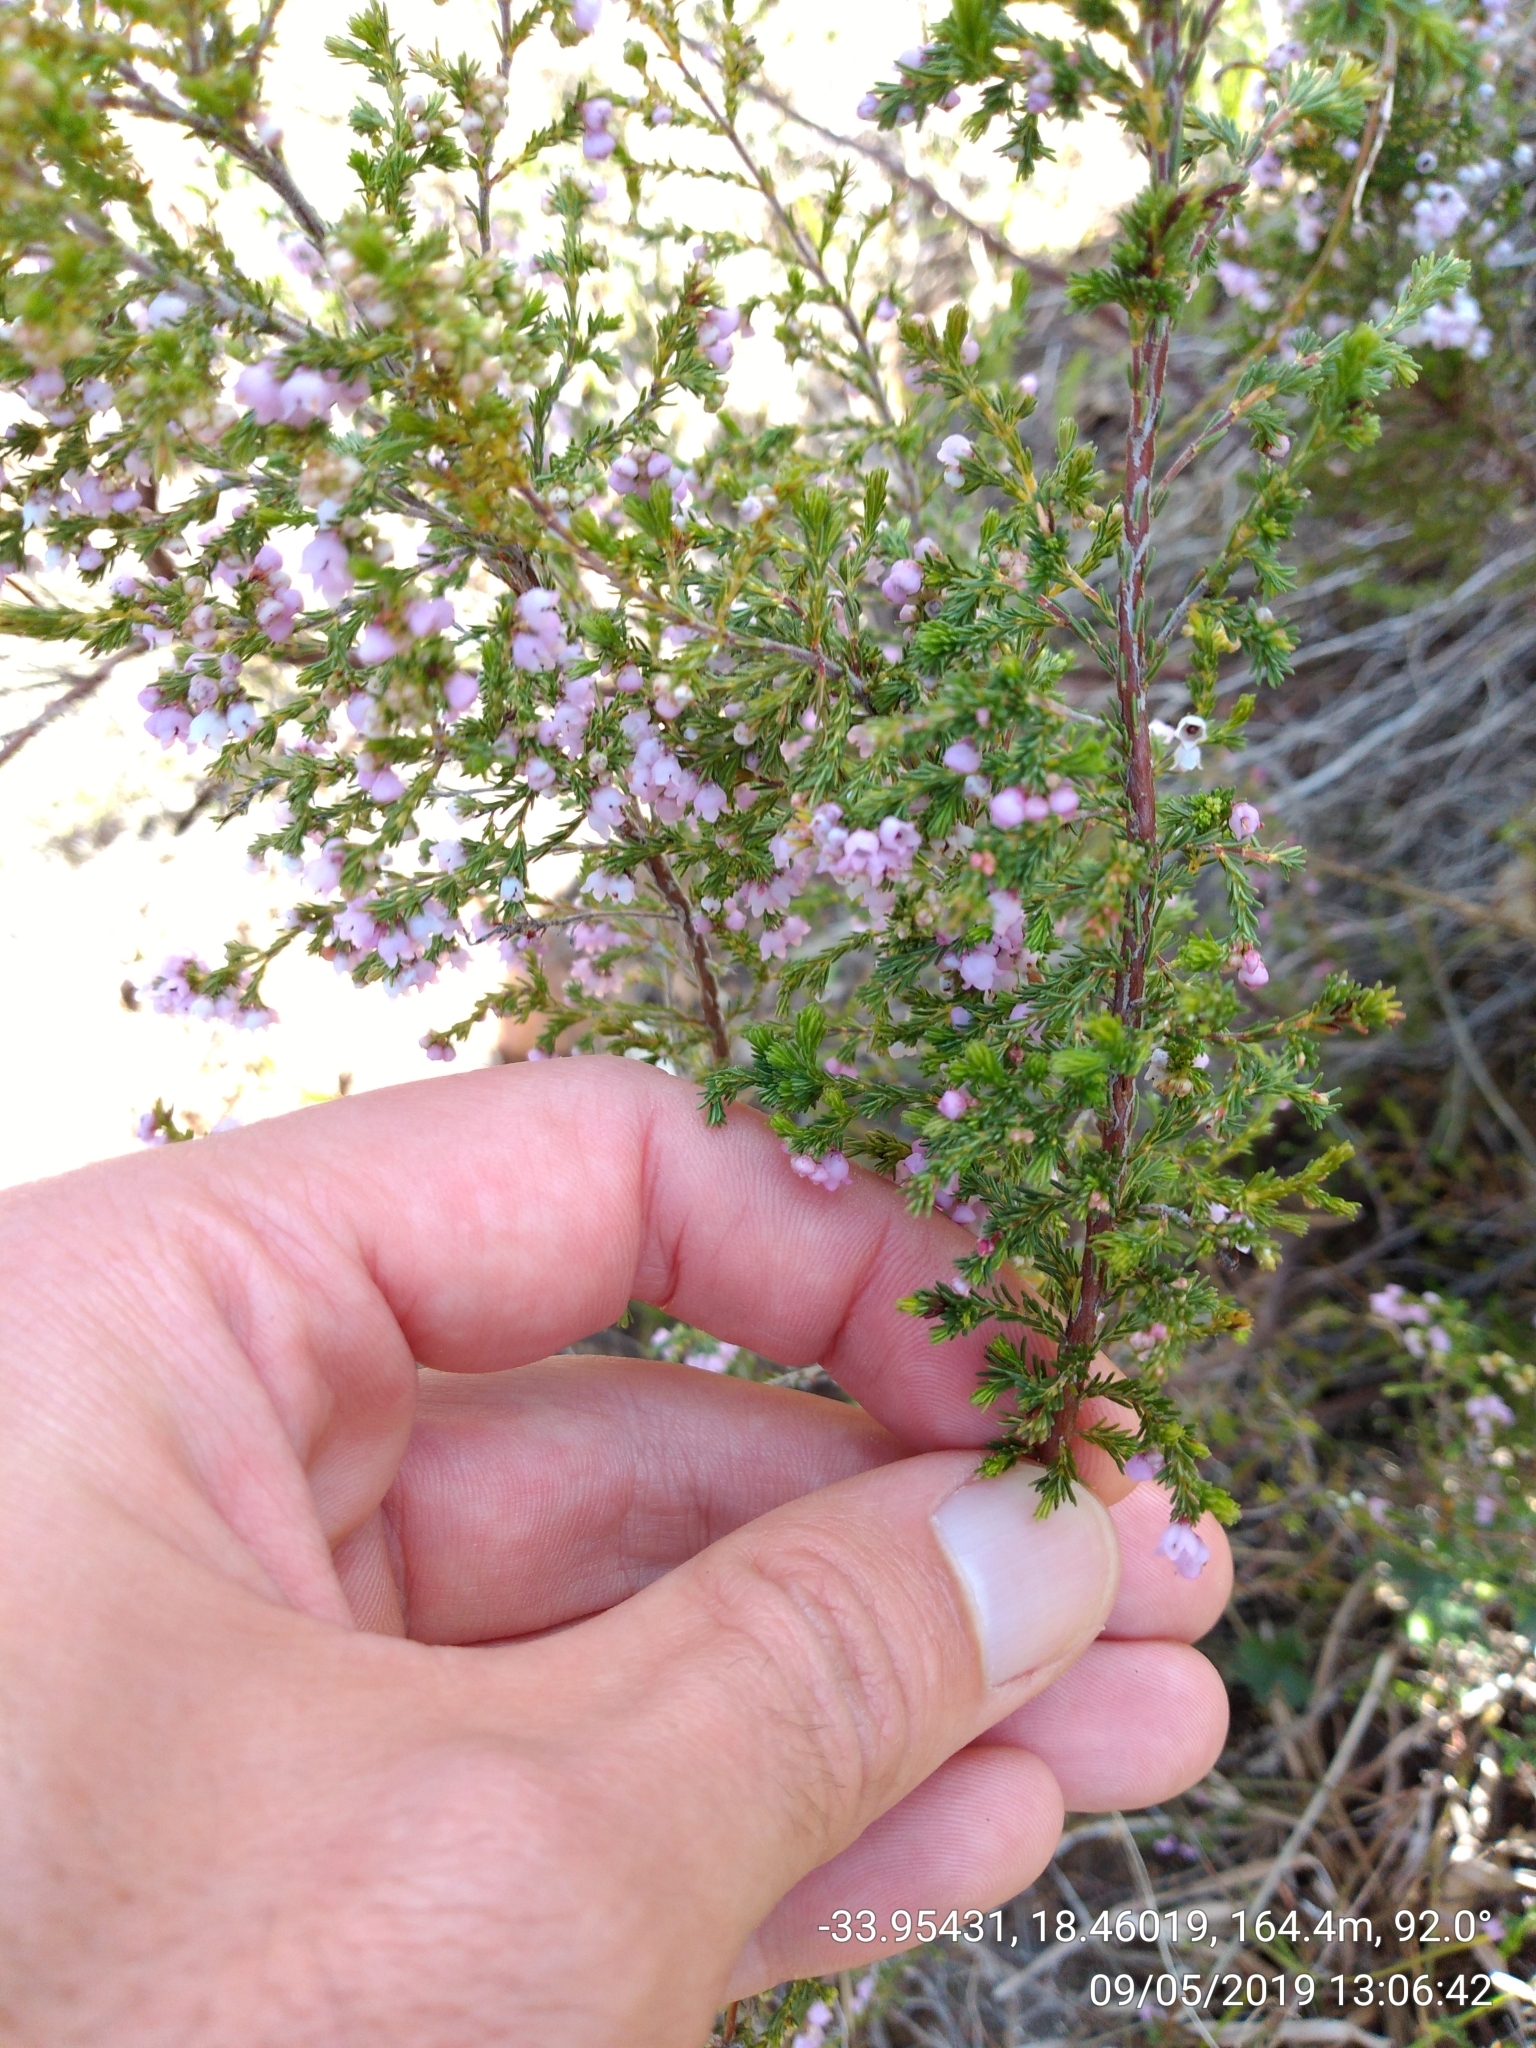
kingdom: Plantae
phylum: Tracheophyta
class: Magnoliopsida
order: Ericales
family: Ericaceae
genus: Erica
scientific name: Erica mauritanica
